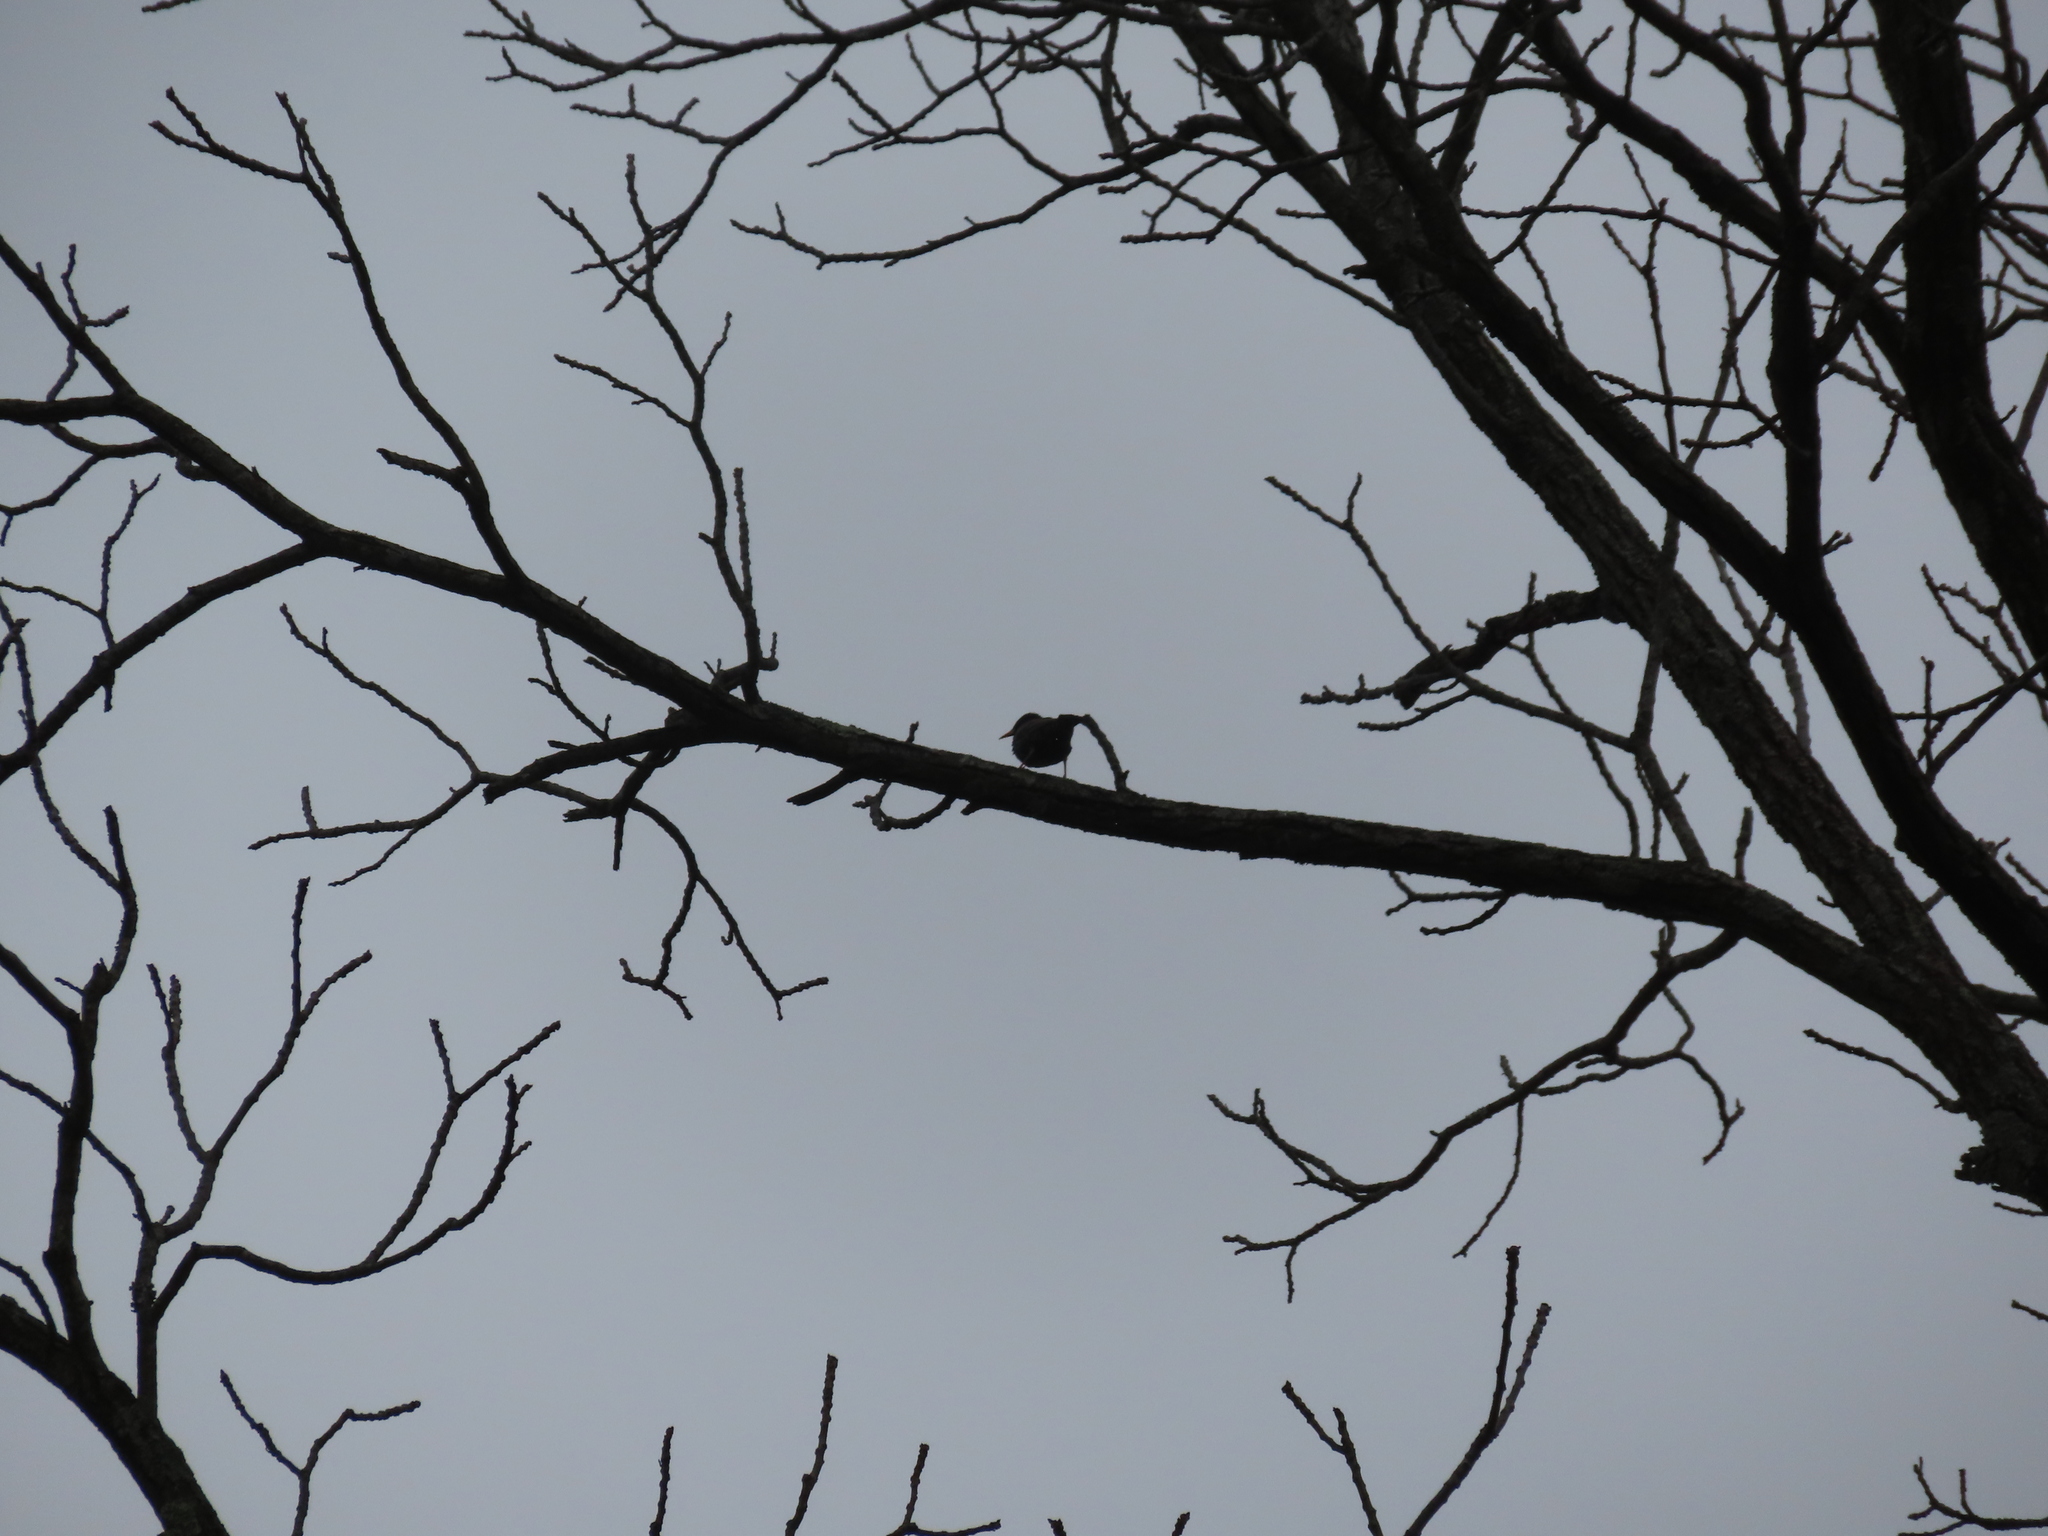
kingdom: Animalia
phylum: Chordata
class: Aves
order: Passeriformes
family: Sturnidae
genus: Sturnus
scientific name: Sturnus vulgaris
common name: Common starling
